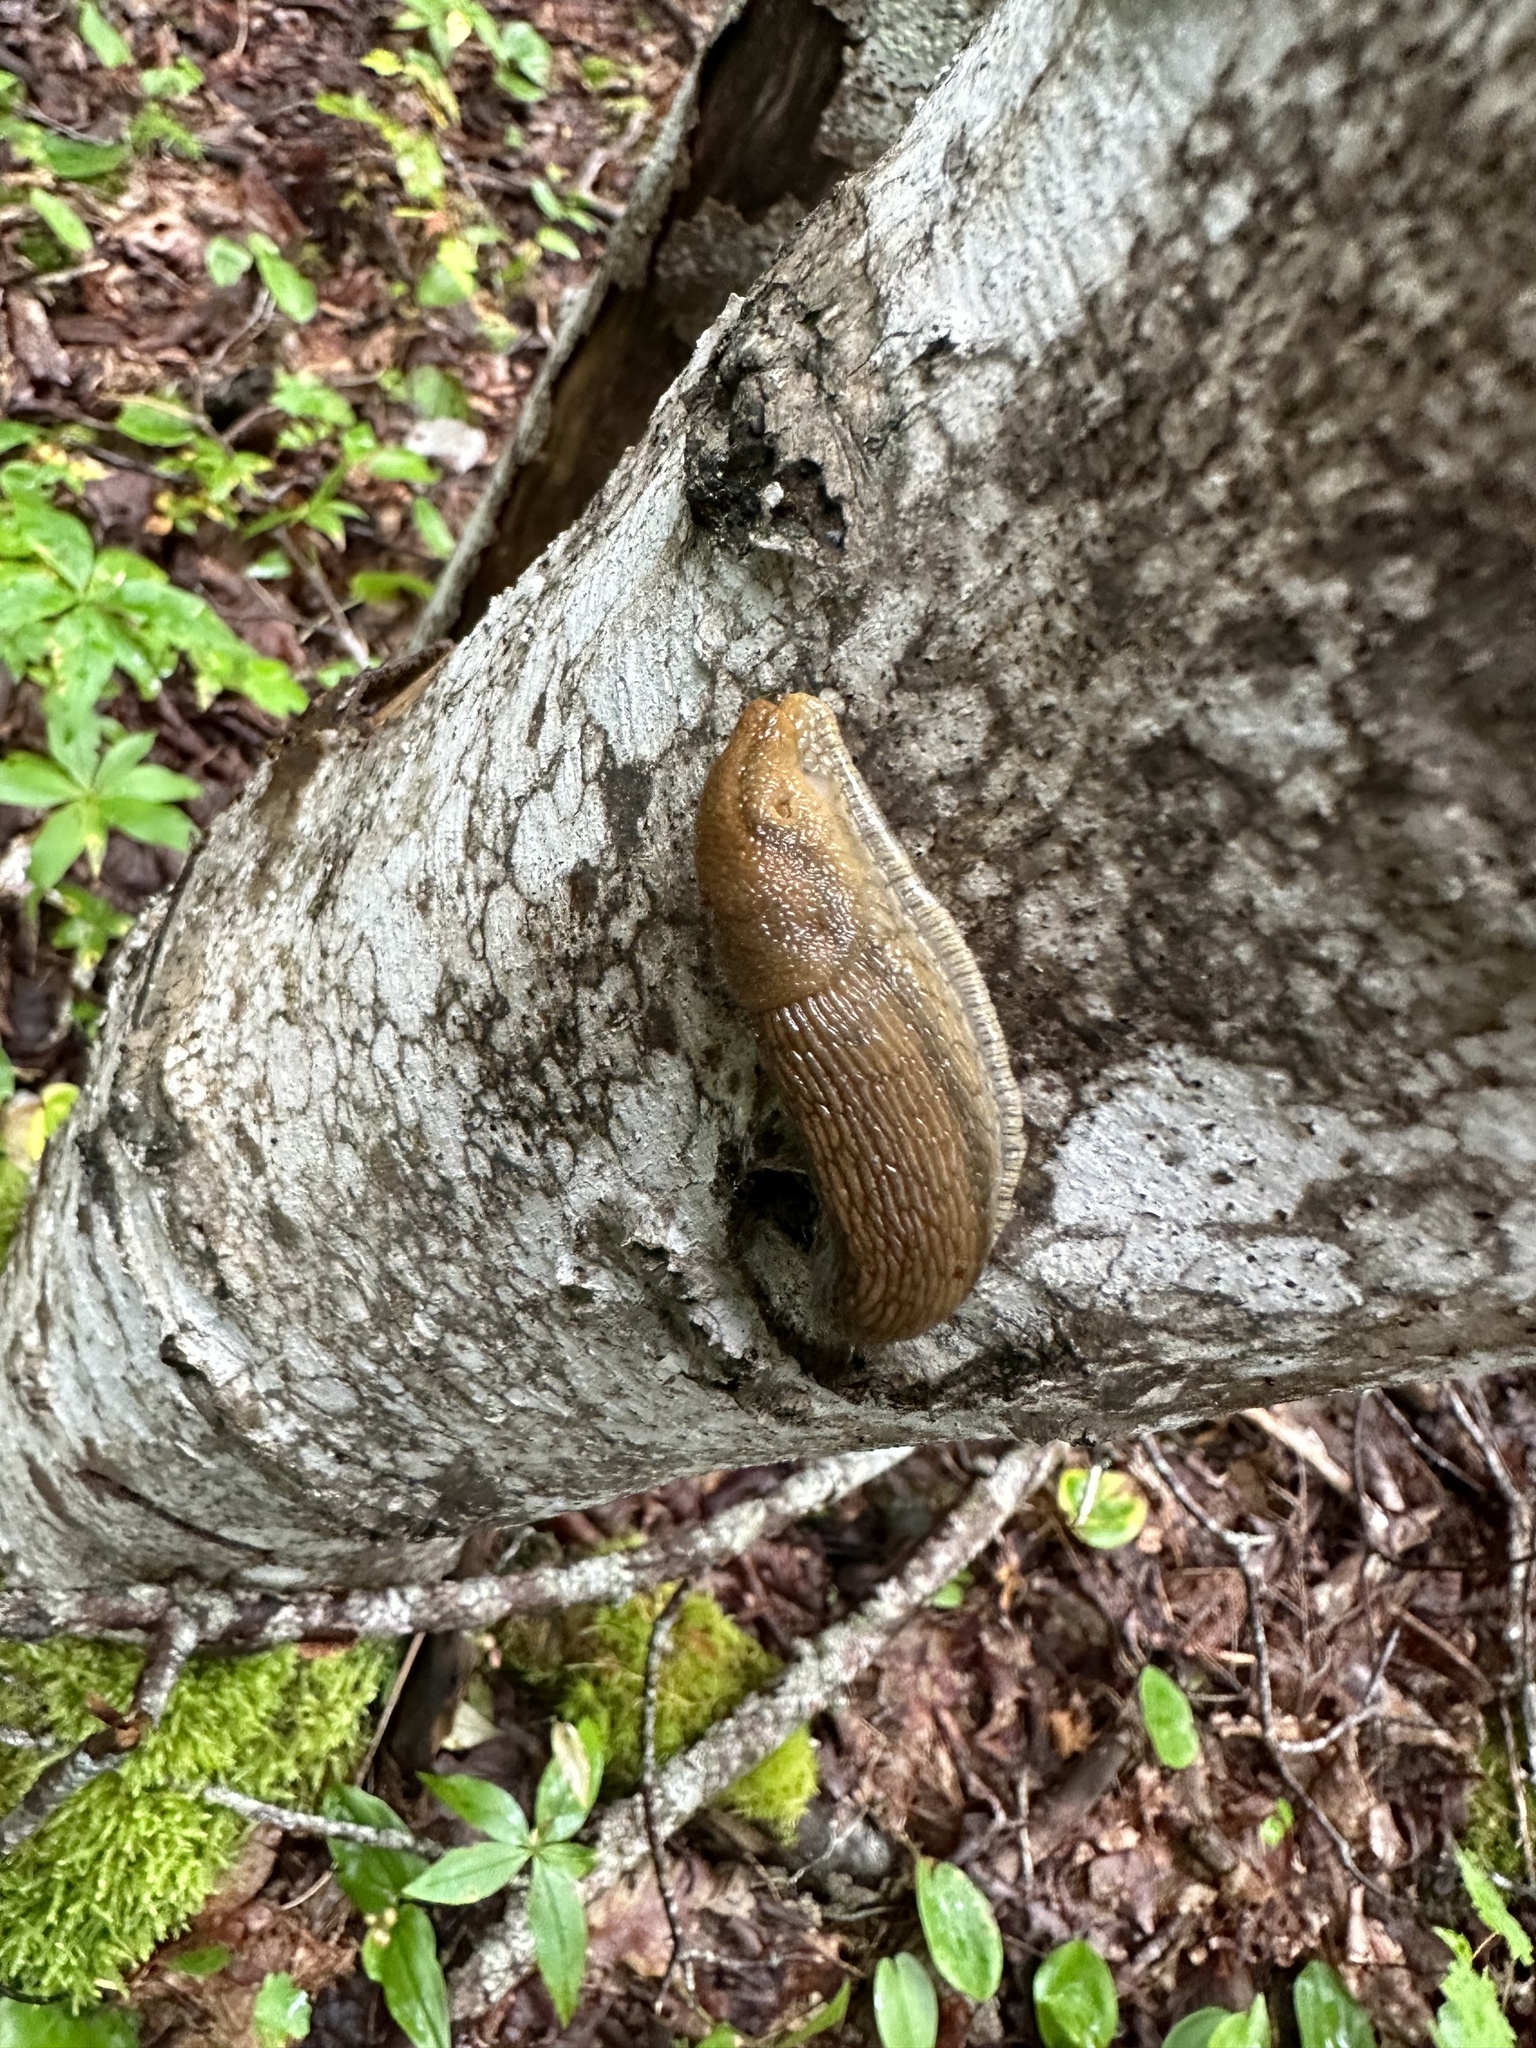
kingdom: Animalia
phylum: Mollusca
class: Gastropoda
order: Stylommatophora
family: Arionidae
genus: Arion
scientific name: Arion subfuscus
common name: Dusky arion
